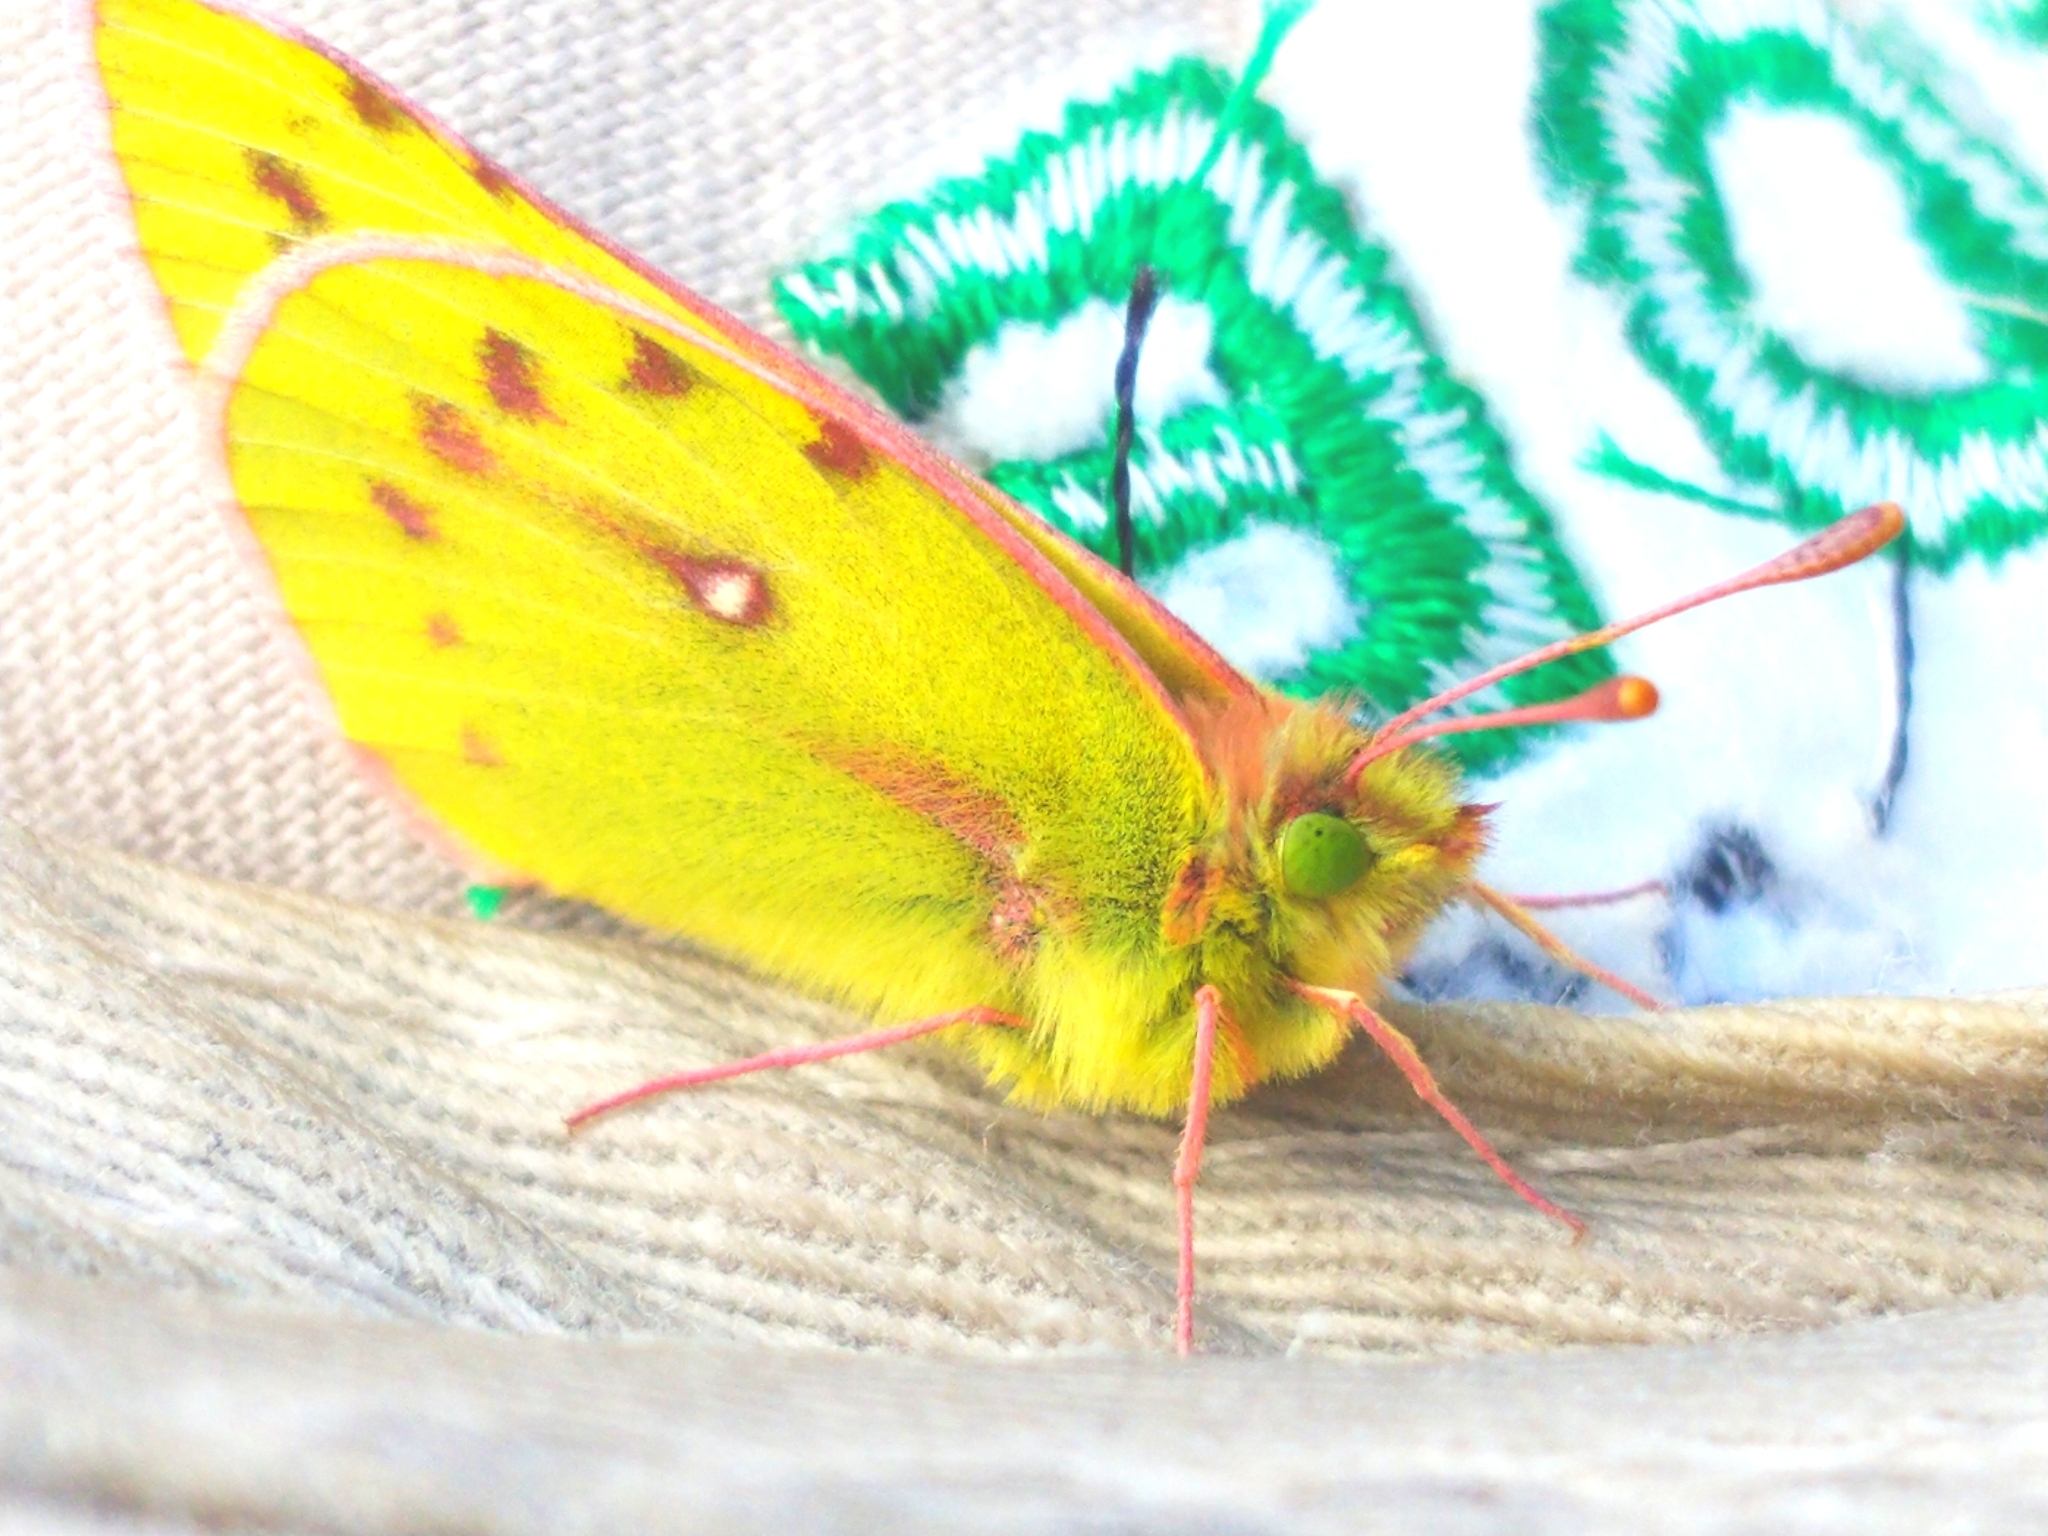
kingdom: Animalia
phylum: Arthropoda
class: Insecta
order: Lepidoptera
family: Pieridae
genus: Colias
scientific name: Colias vauthierii
